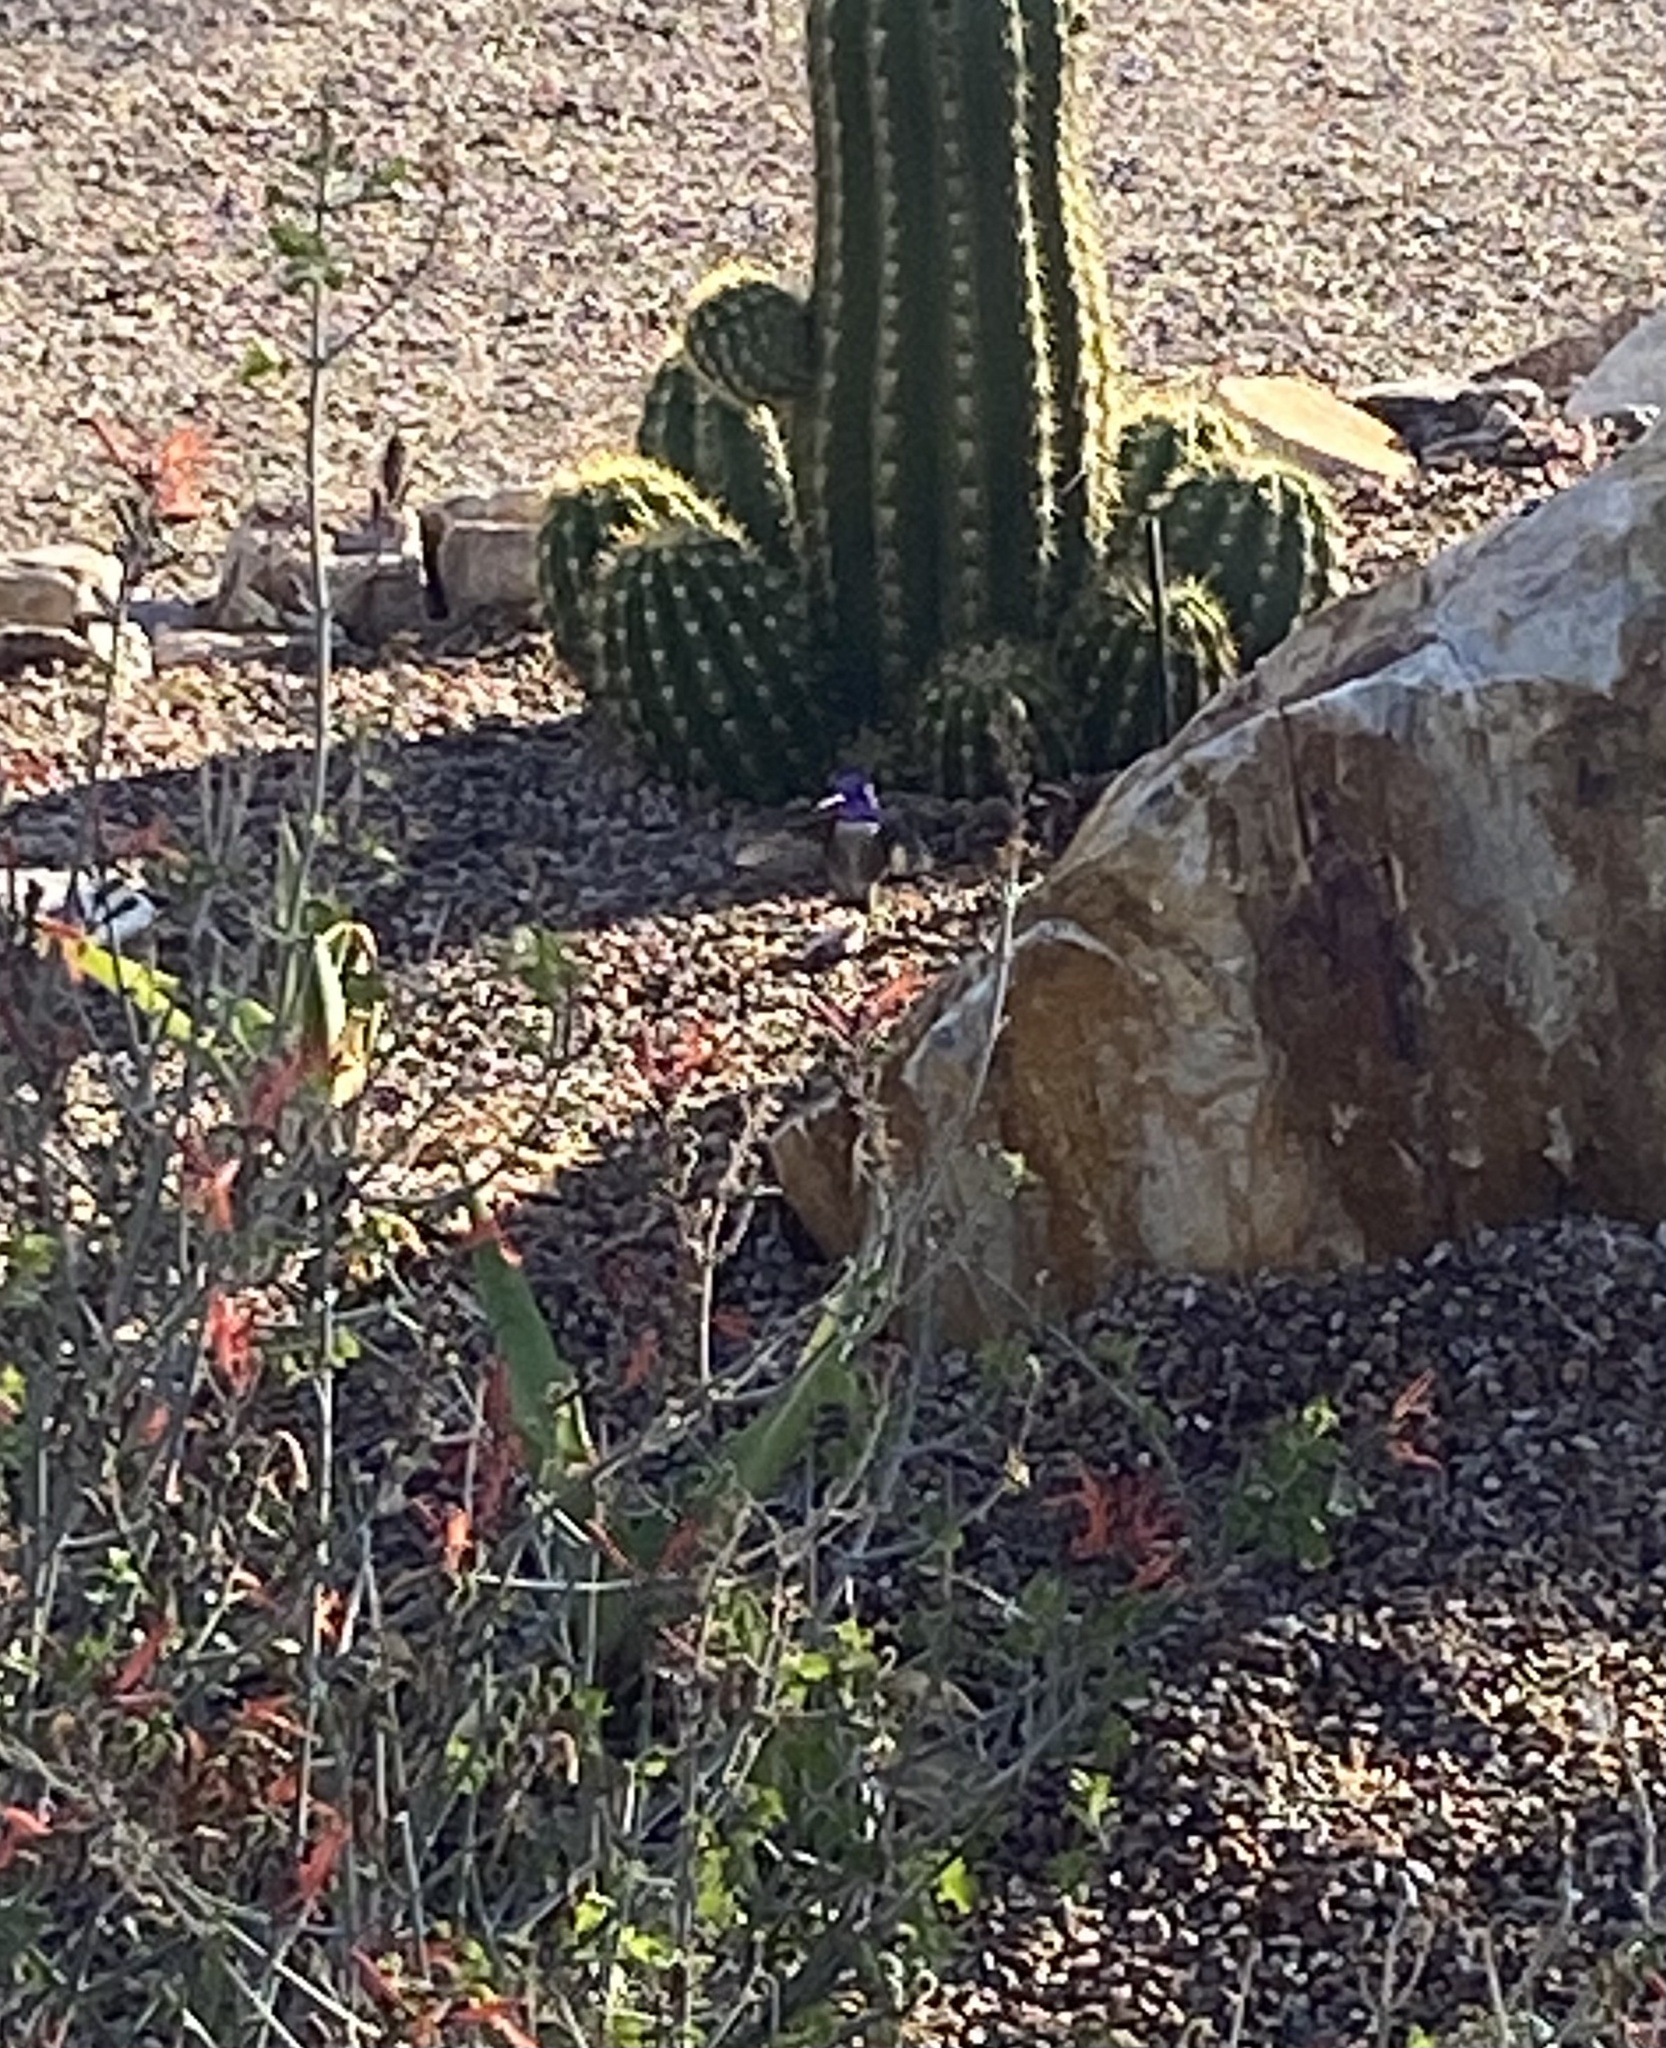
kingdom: Animalia
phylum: Chordata
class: Aves
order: Apodiformes
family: Trochilidae
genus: Calypte
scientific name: Calypte costae
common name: Costa's hummingbird
